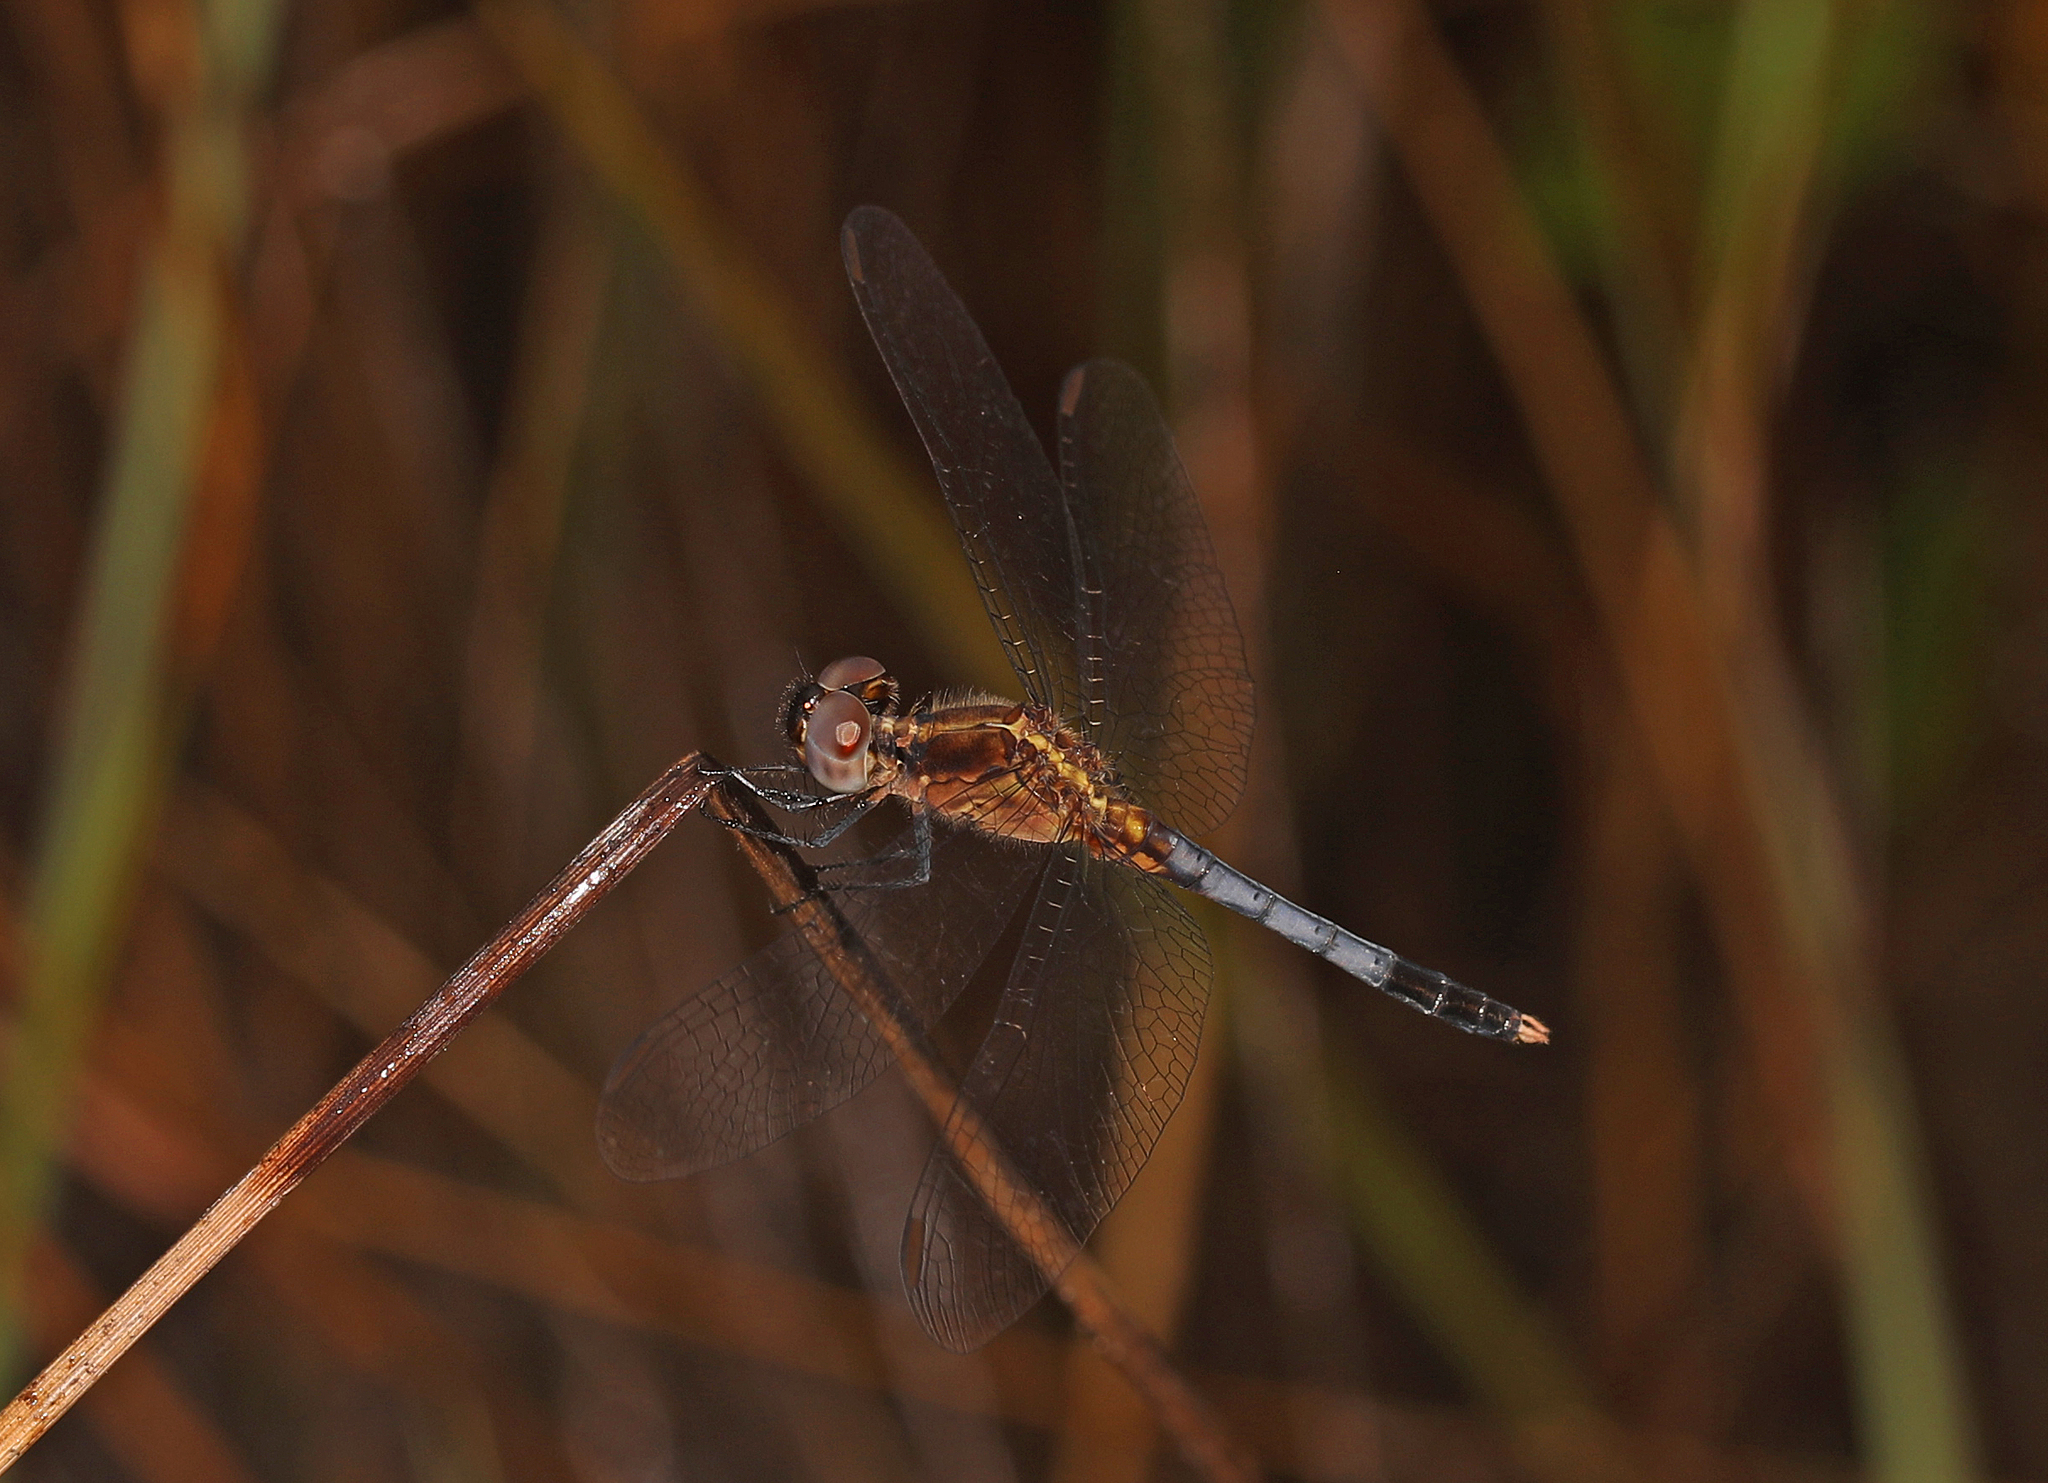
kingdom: Animalia
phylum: Arthropoda
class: Insecta
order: Odonata
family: Libellulidae
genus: Erythrodiplax
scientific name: Erythrodiplax minuscula
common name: Little blue dragonlet
